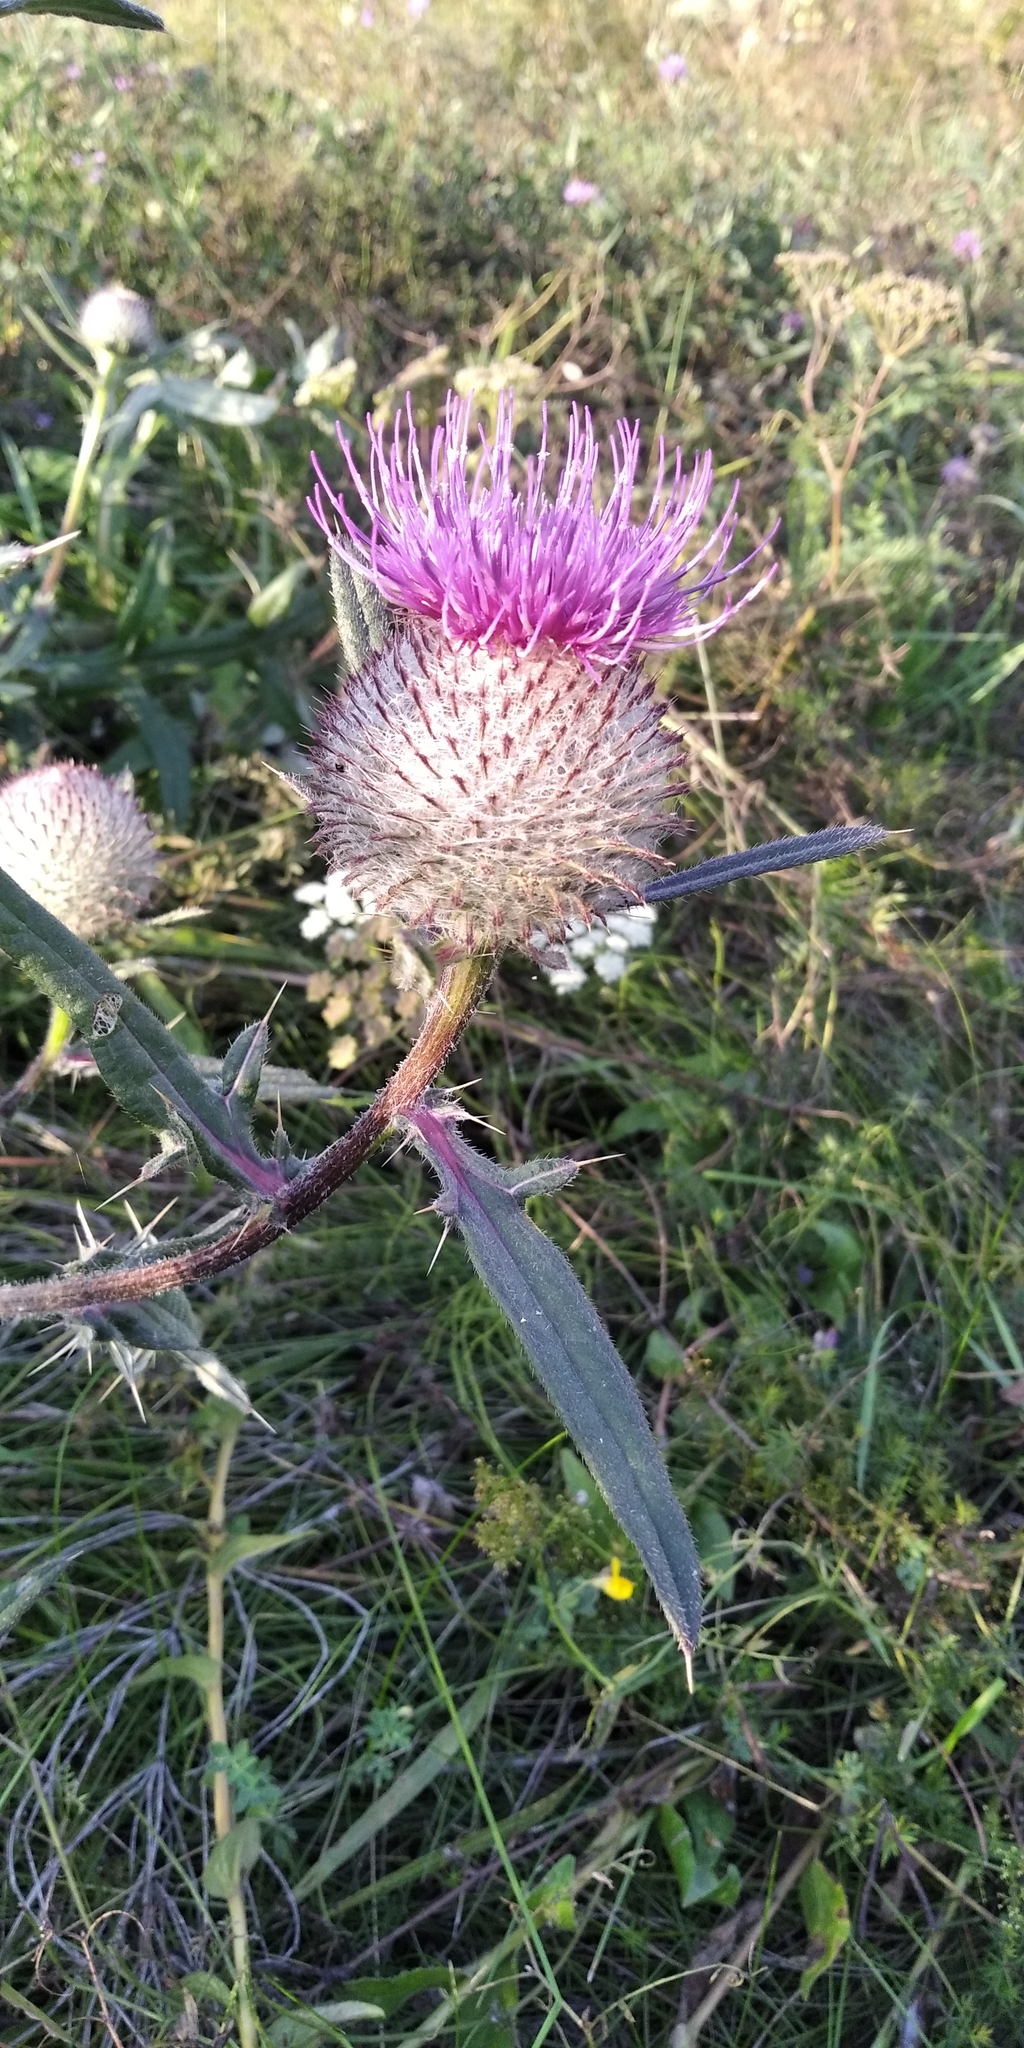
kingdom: Plantae
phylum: Tracheophyta
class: Magnoliopsida
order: Asterales
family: Asteraceae
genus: Lophiolepis
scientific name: Lophiolepis decussata
